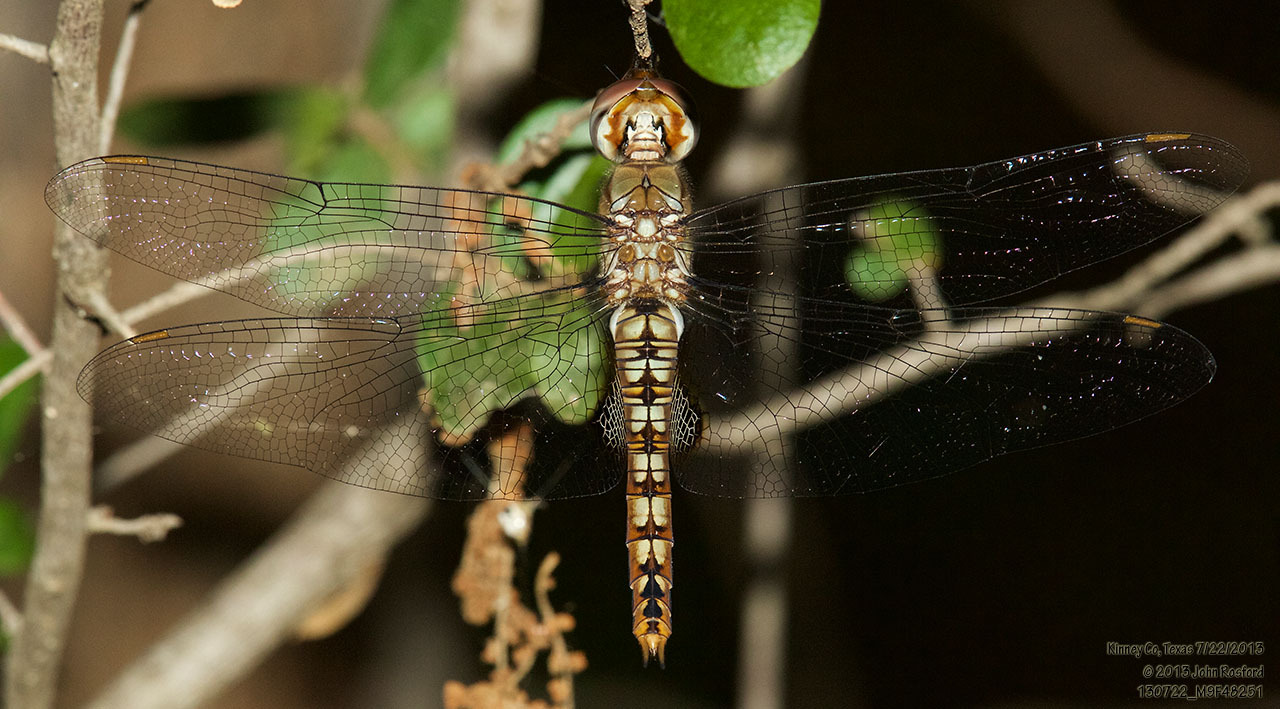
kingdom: Animalia
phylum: Arthropoda
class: Insecta
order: Odonata
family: Libellulidae
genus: Pantala
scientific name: Pantala hymenaea
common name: Spot-winged glider
